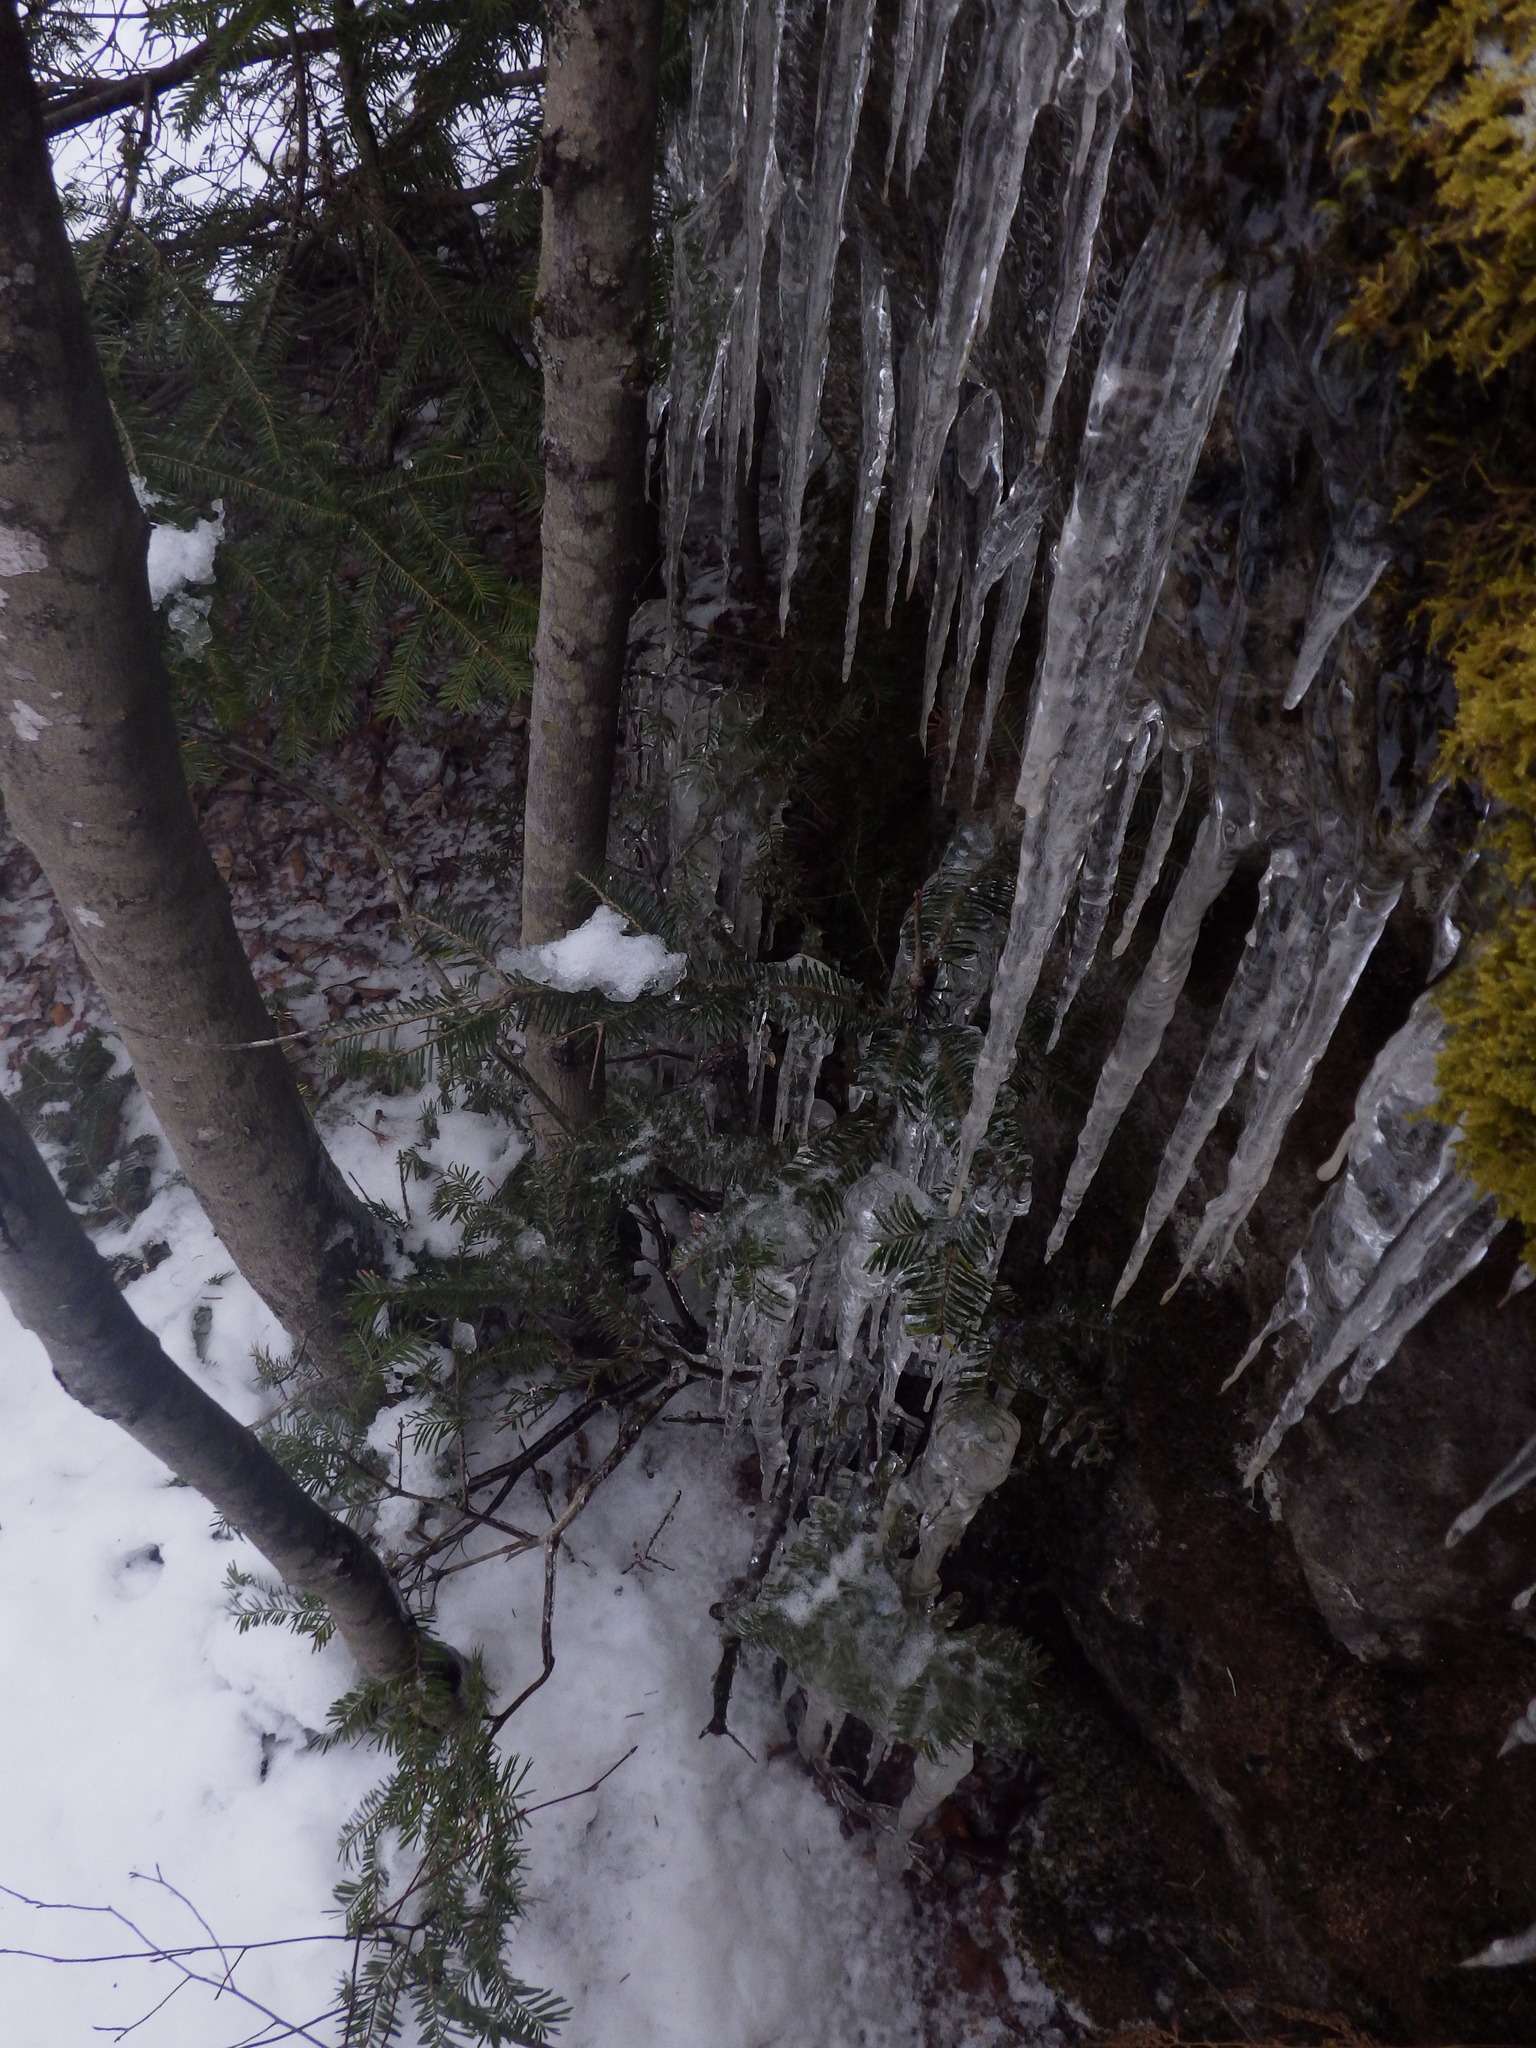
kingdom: Plantae
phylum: Tracheophyta
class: Pinopsida
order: Pinales
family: Pinaceae
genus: Abies
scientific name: Abies balsamea
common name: Balsam fir
